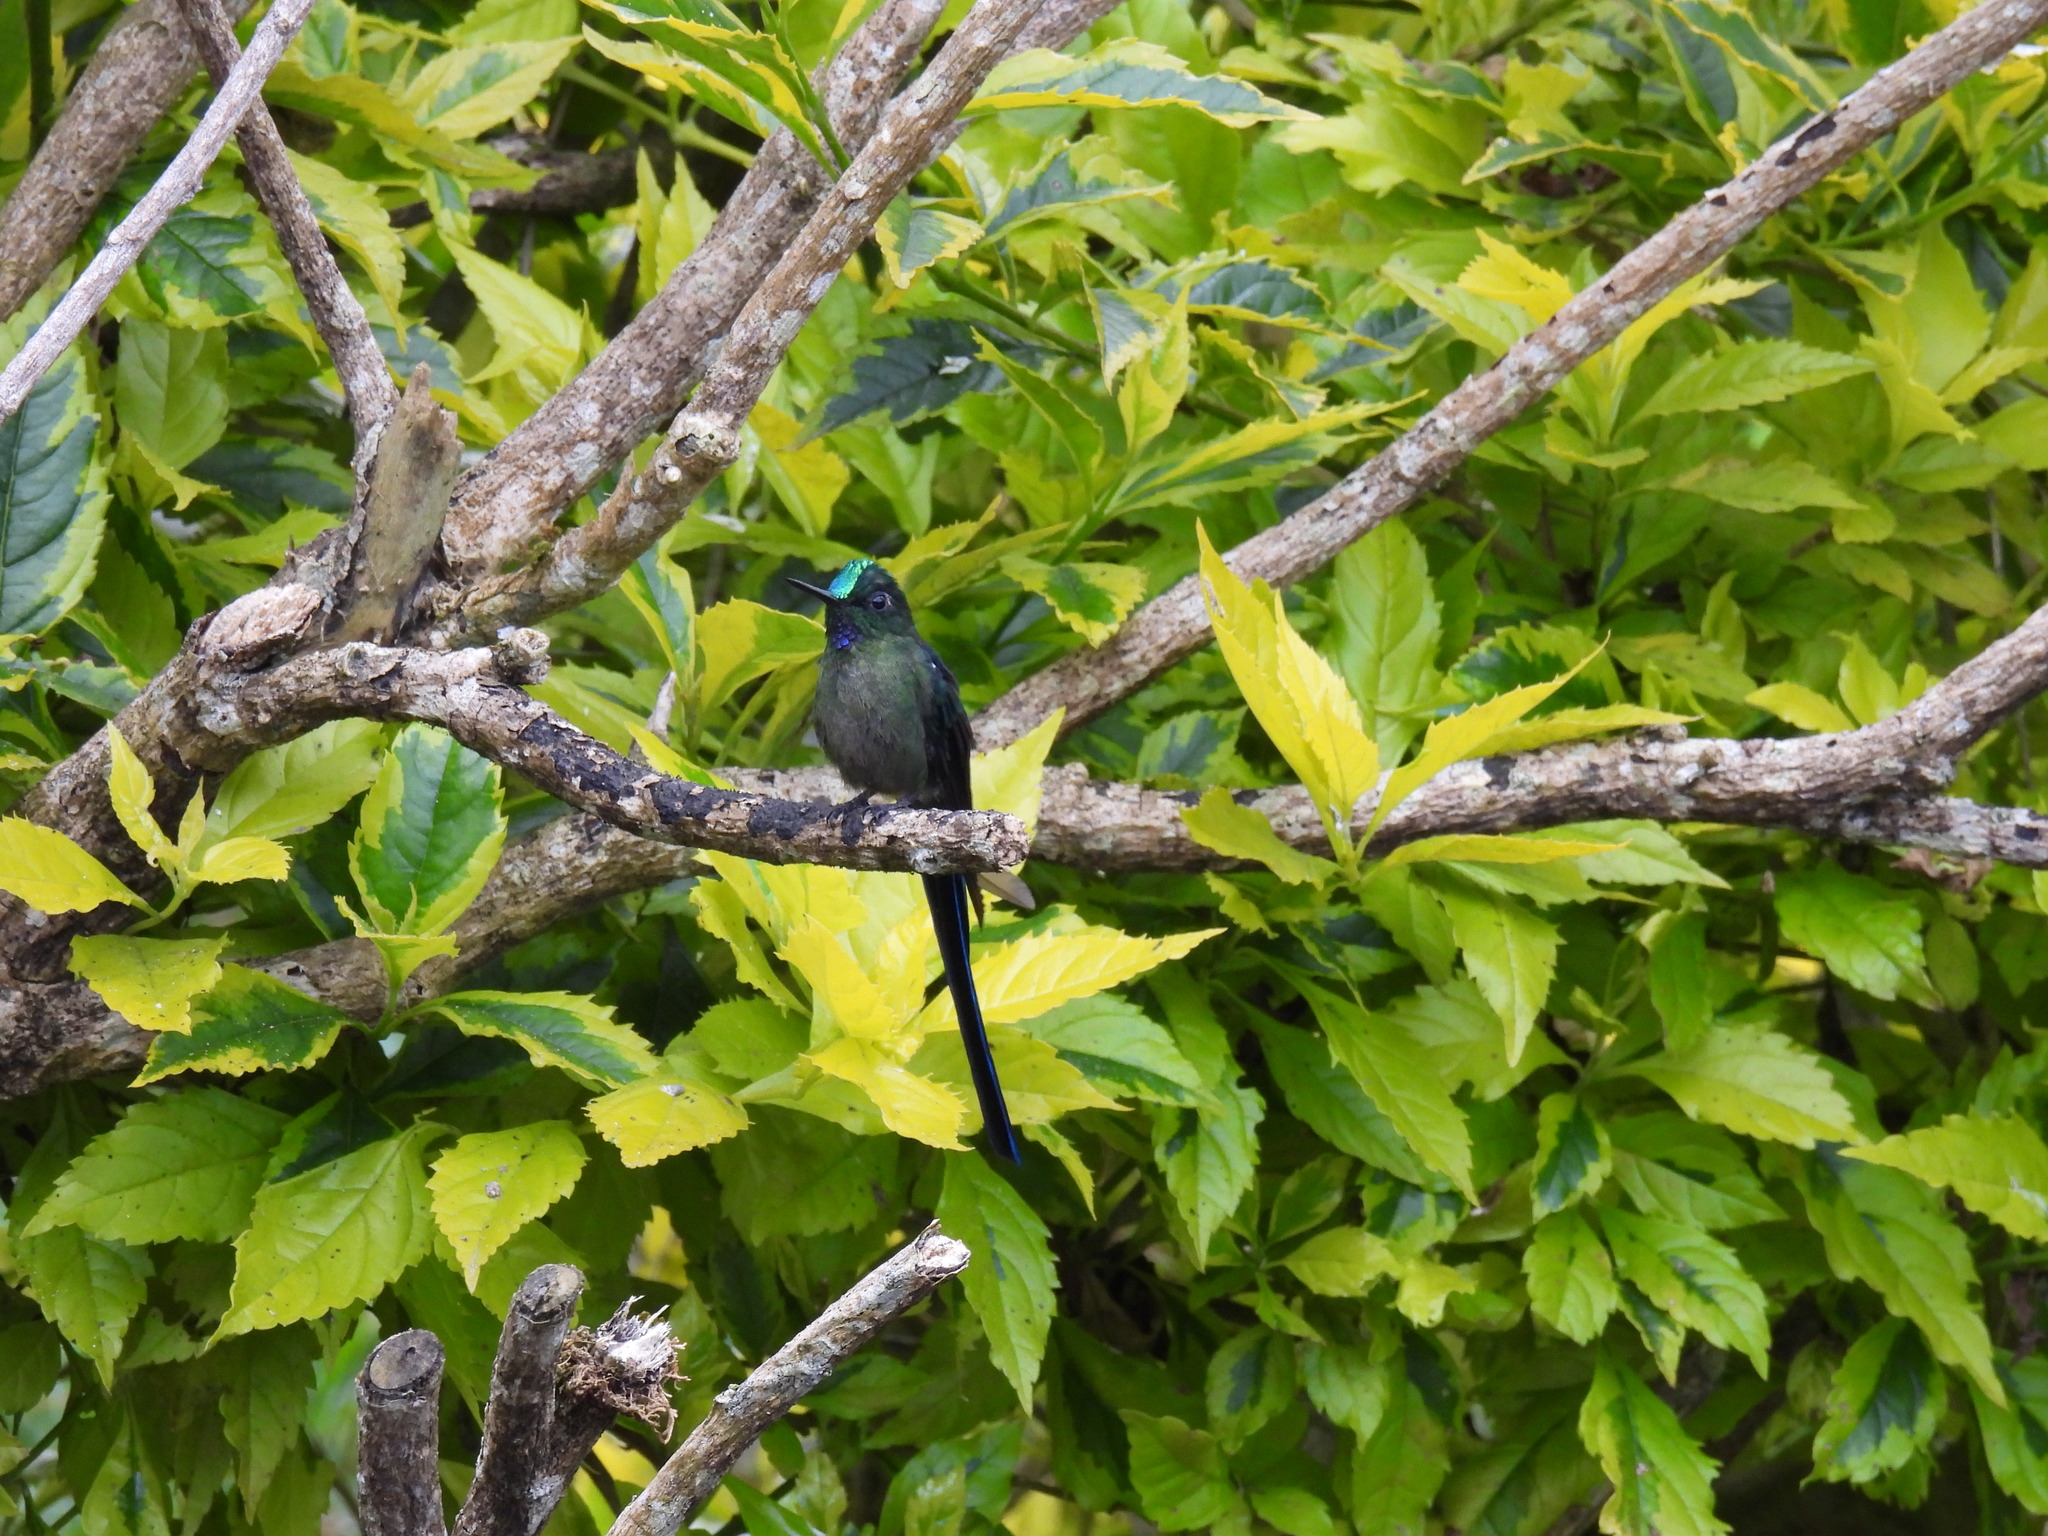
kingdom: Animalia
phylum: Chordata
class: Aves
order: Apodiformes
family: Trochilidae
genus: Aglaiocercus
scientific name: Aglaiocercus kingii
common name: Long-tailed sylph
